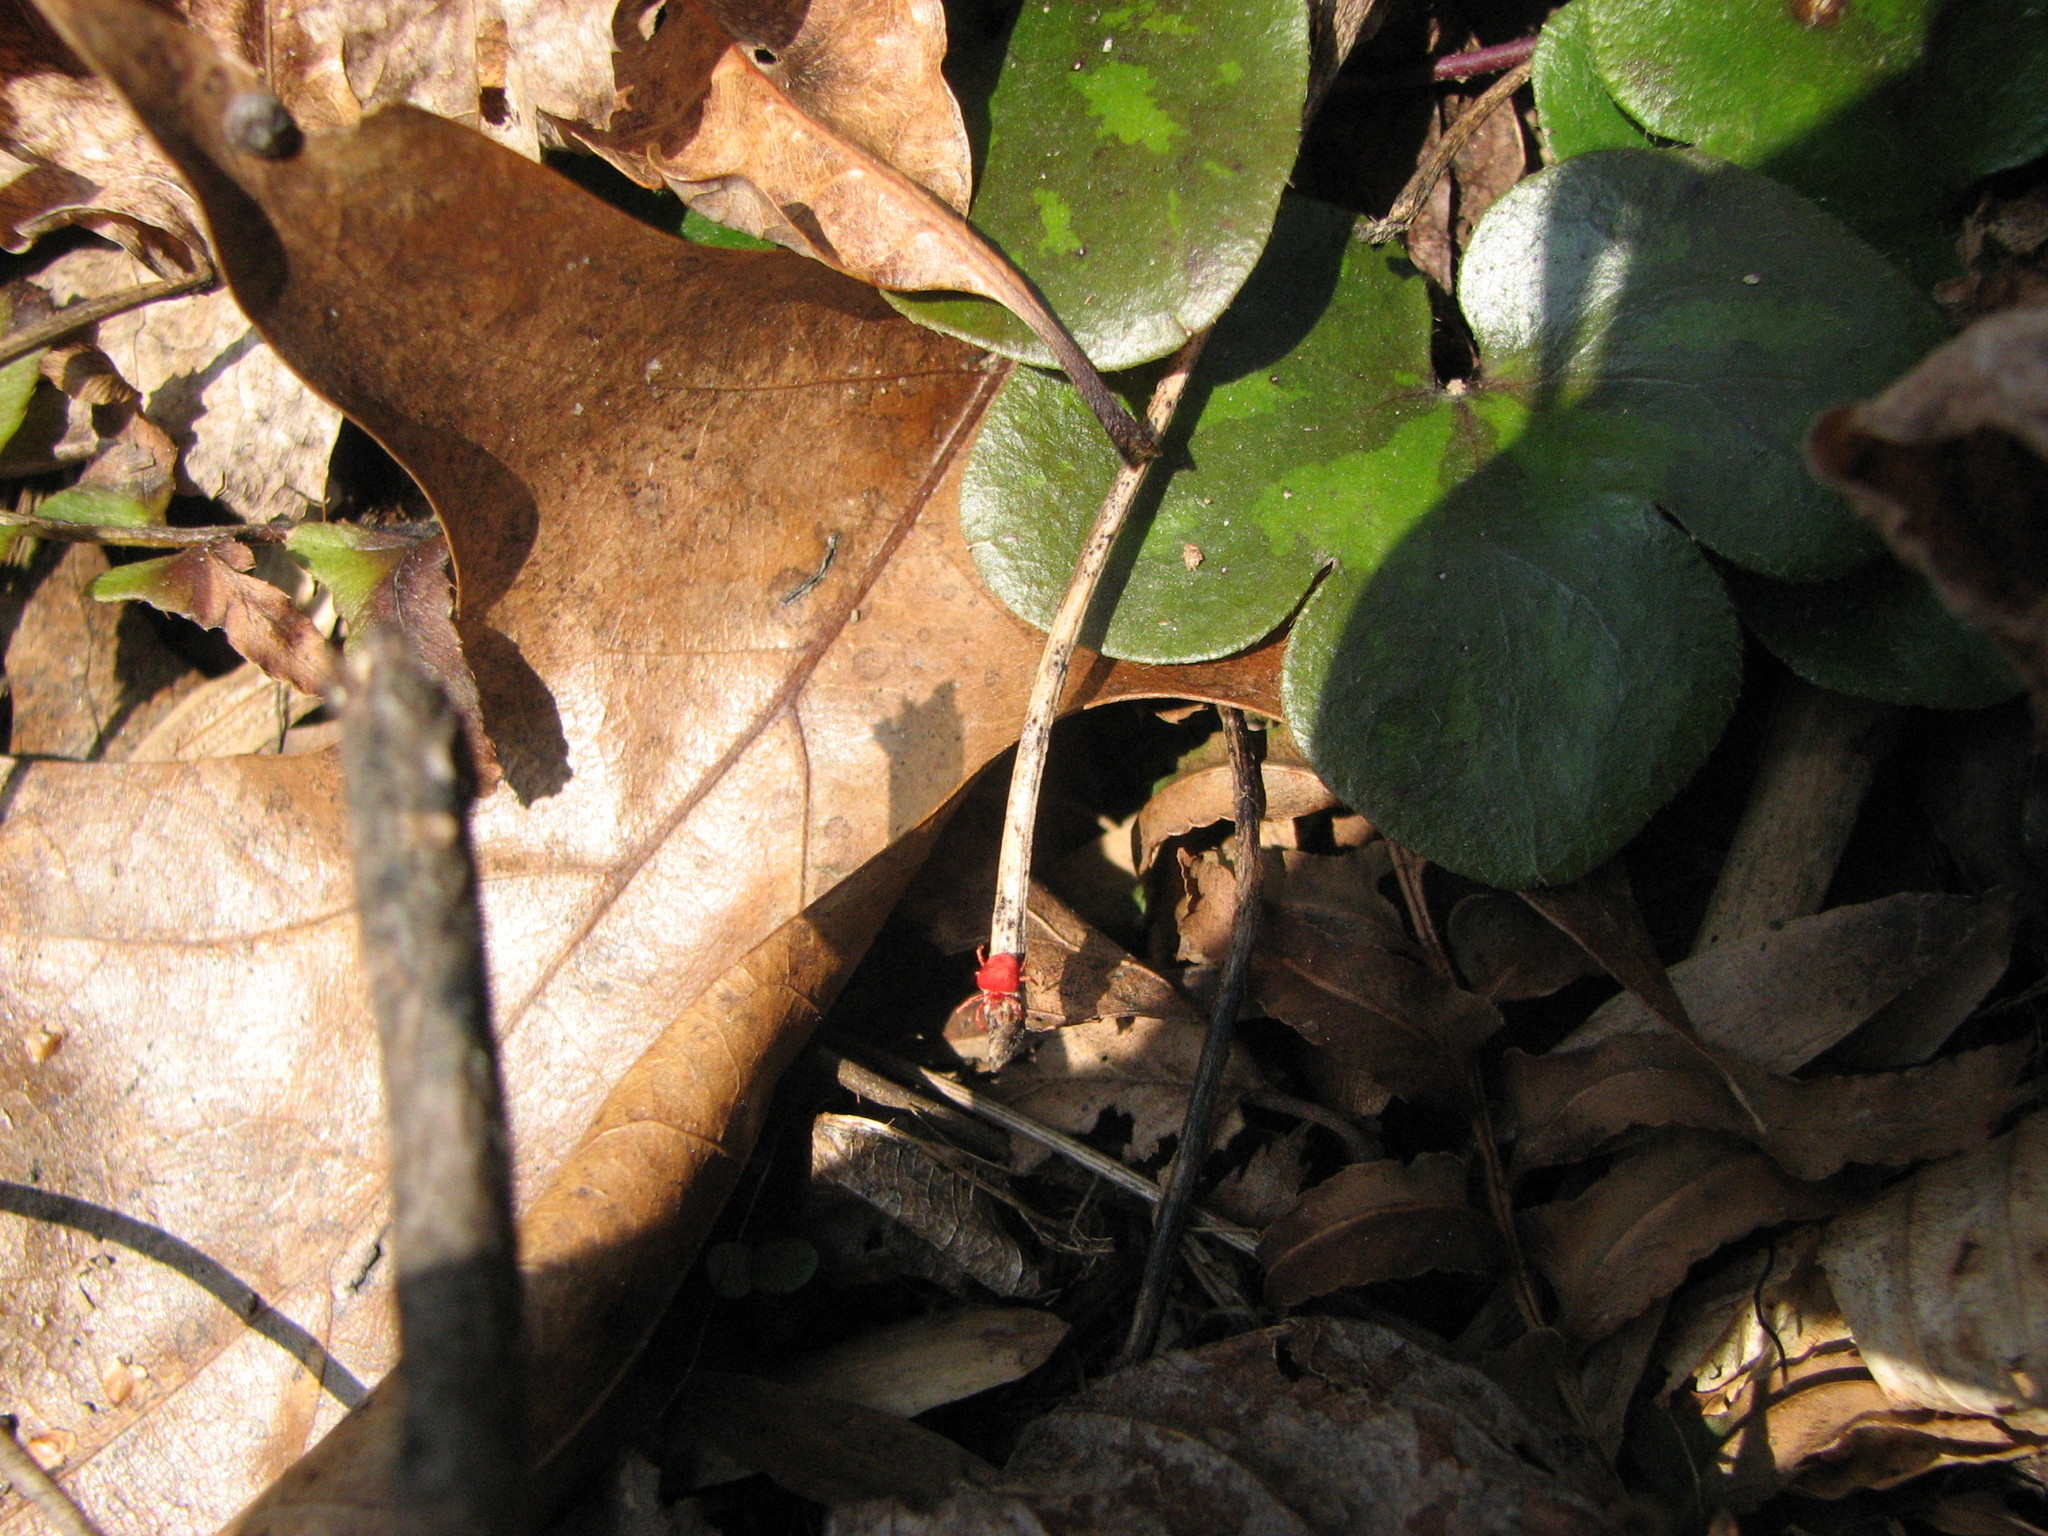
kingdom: Plantae
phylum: Tracheophyta
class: Magnoliopsida
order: Ranunculales
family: Ranunculaceae
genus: Hepatica
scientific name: Hepatica americana
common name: American hepatica
